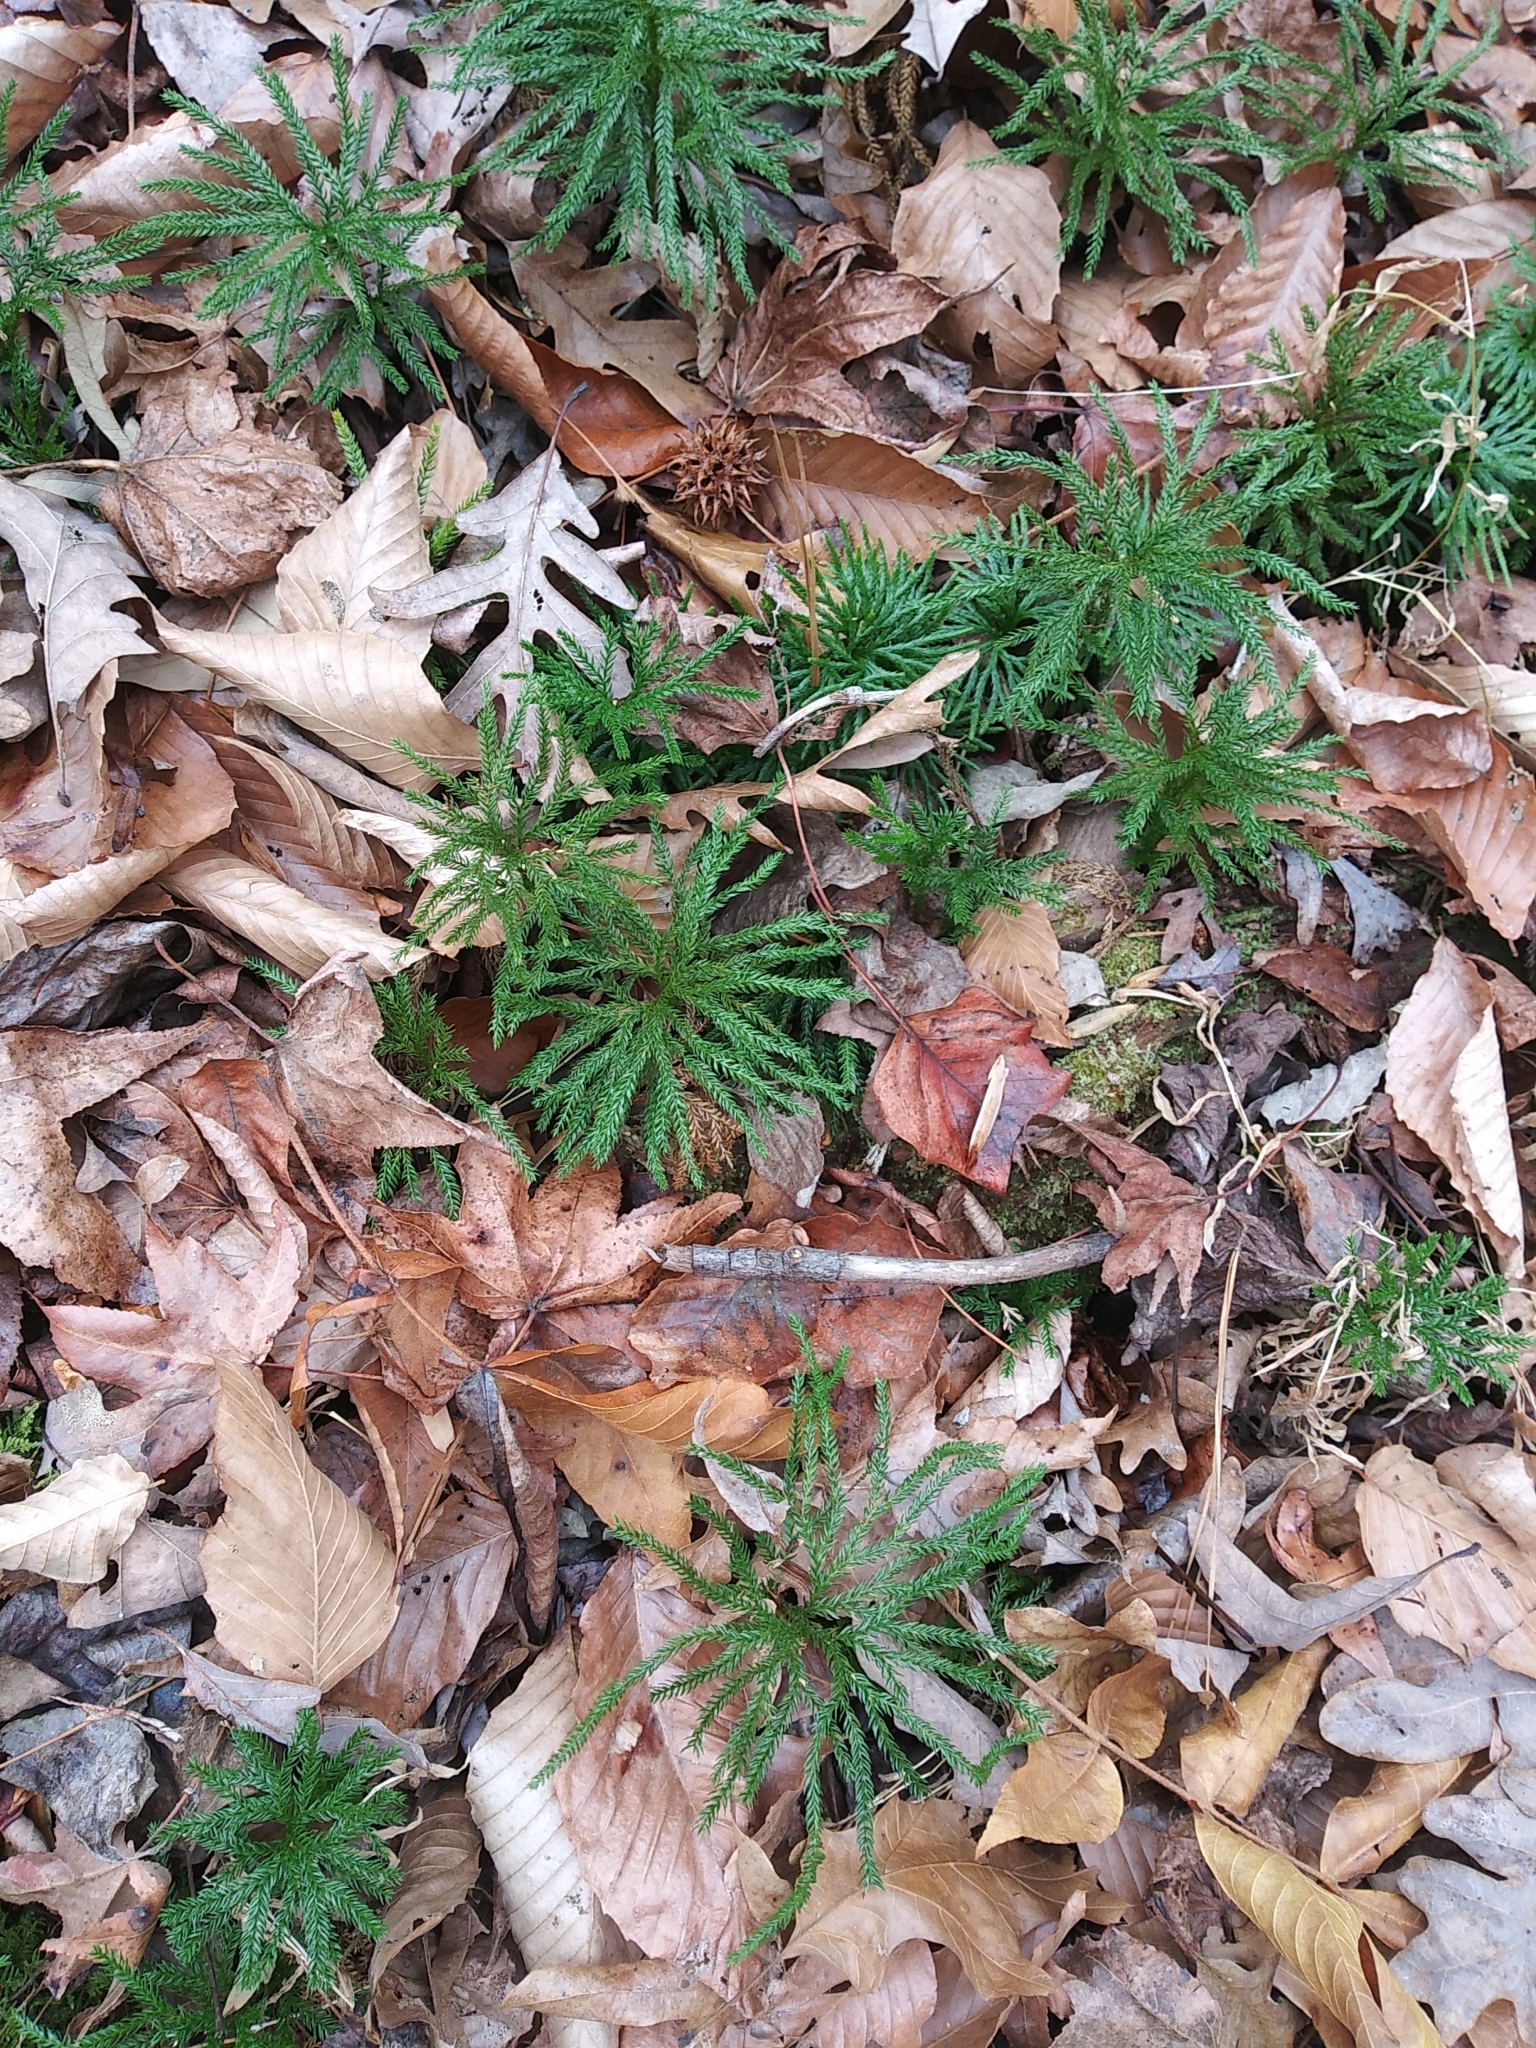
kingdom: Plantae
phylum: Tracheophyta
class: Lycopodiopsida
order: Lycopodiales
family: Lycopodiaceae
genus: Dendrolycopodium
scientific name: Dendrolycopodium obscurum
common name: Common ground-pine
